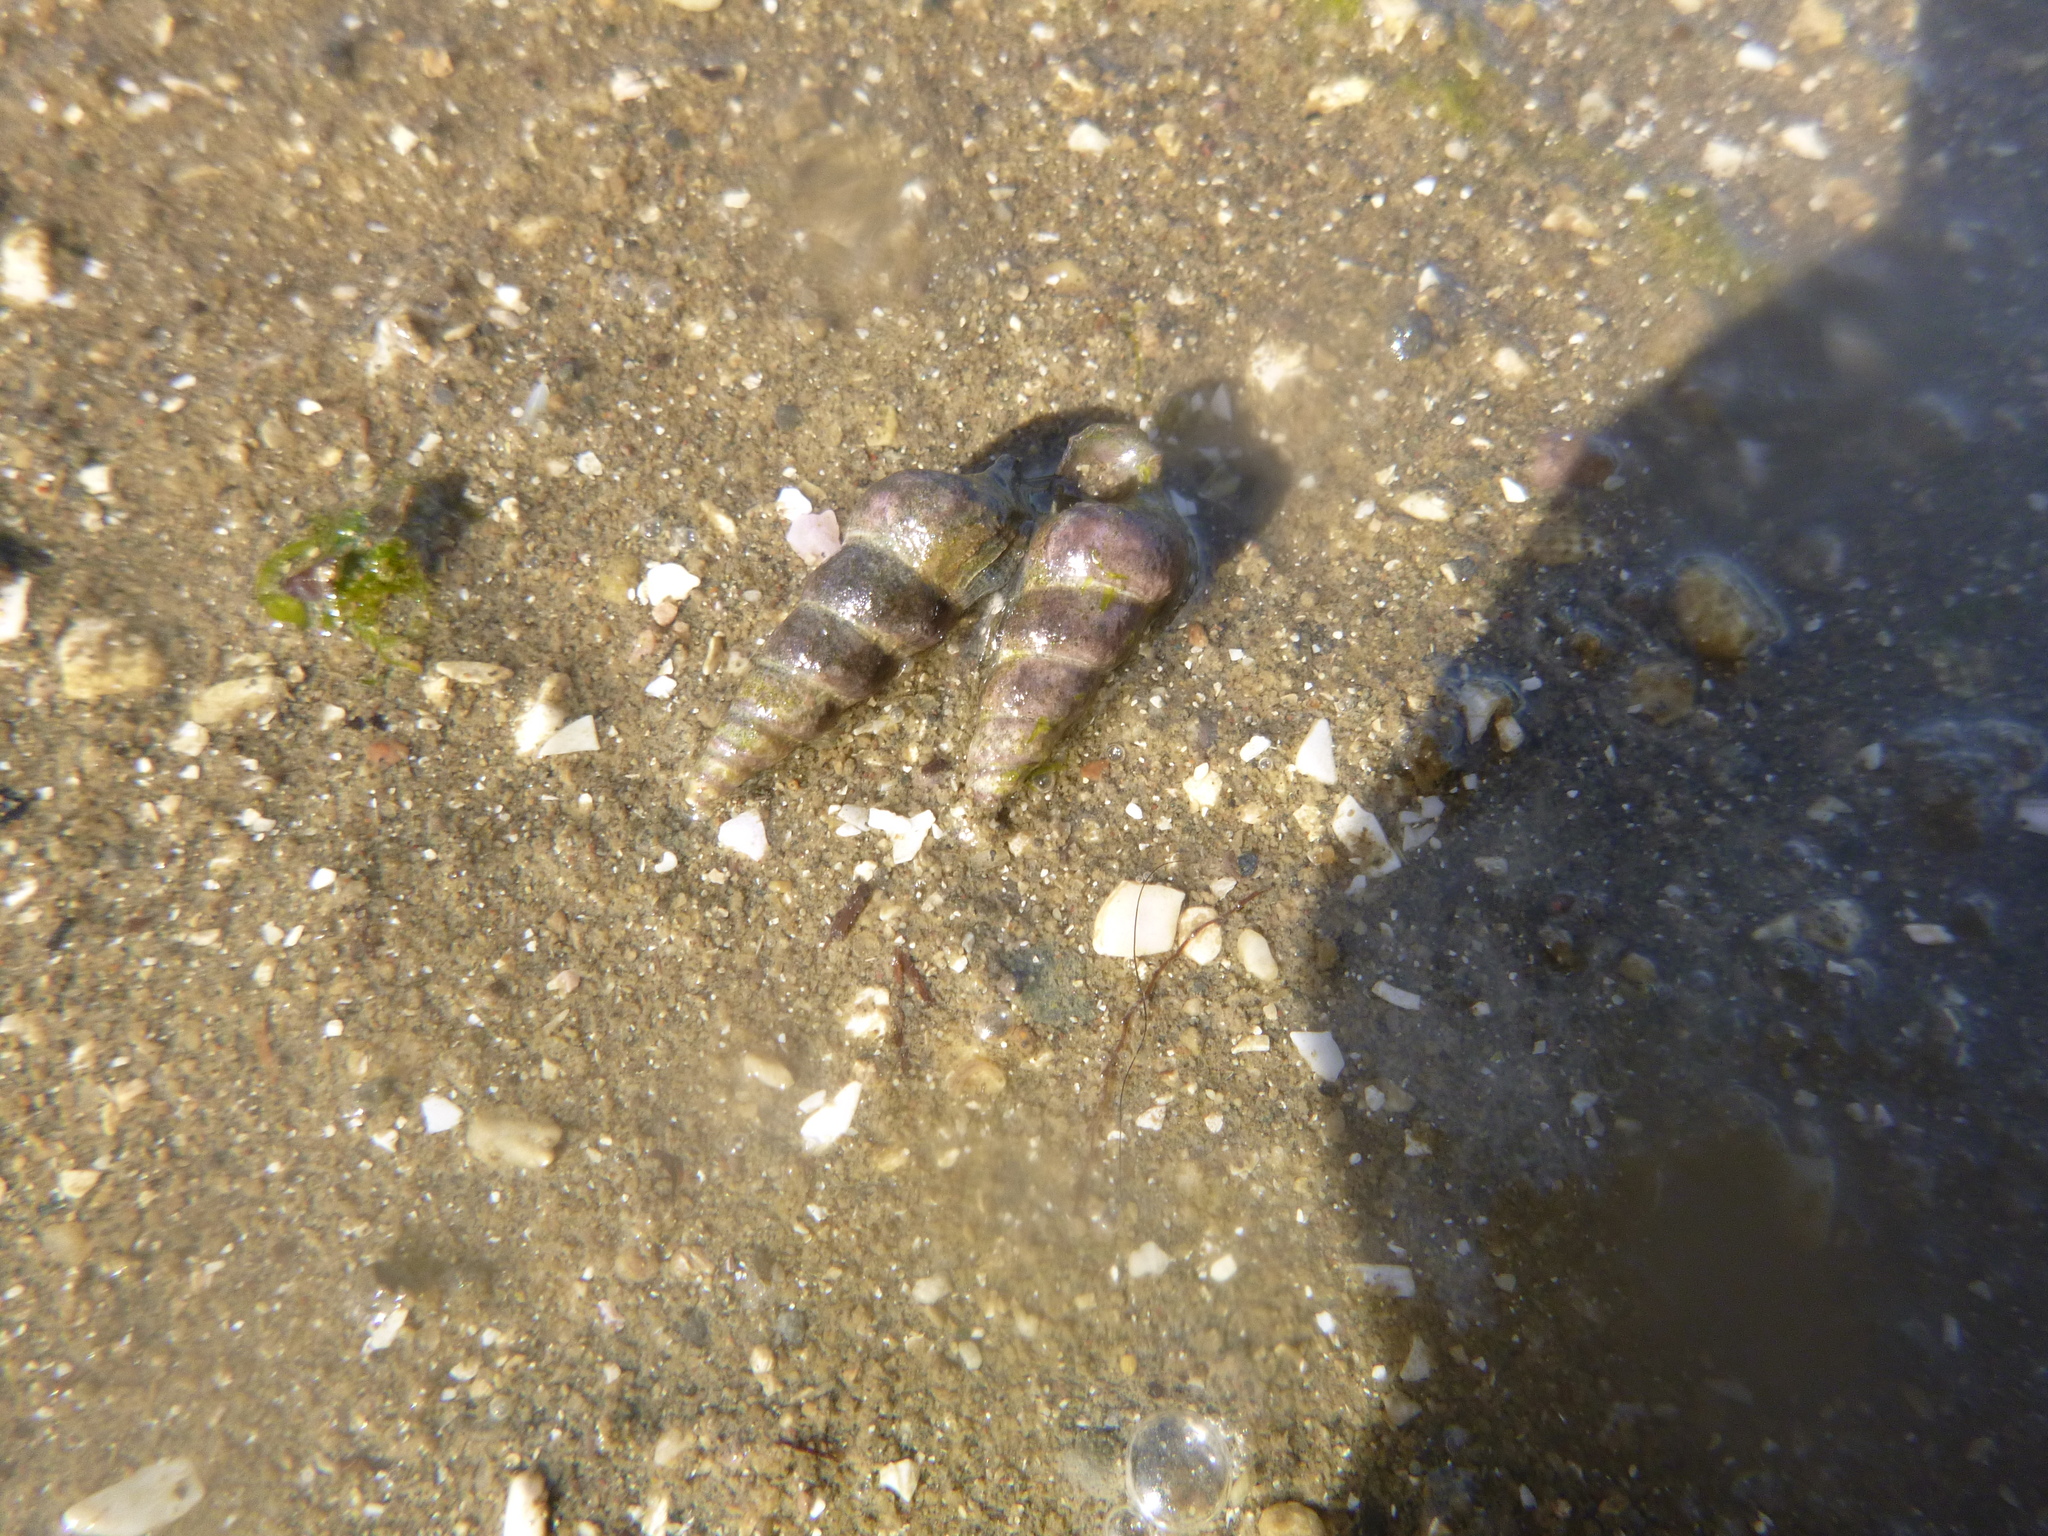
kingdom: Animalia
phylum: Mollusca
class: Gastropoda
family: Batillariidae
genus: Zeacumantus
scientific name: Zeacumantus lutulentus
